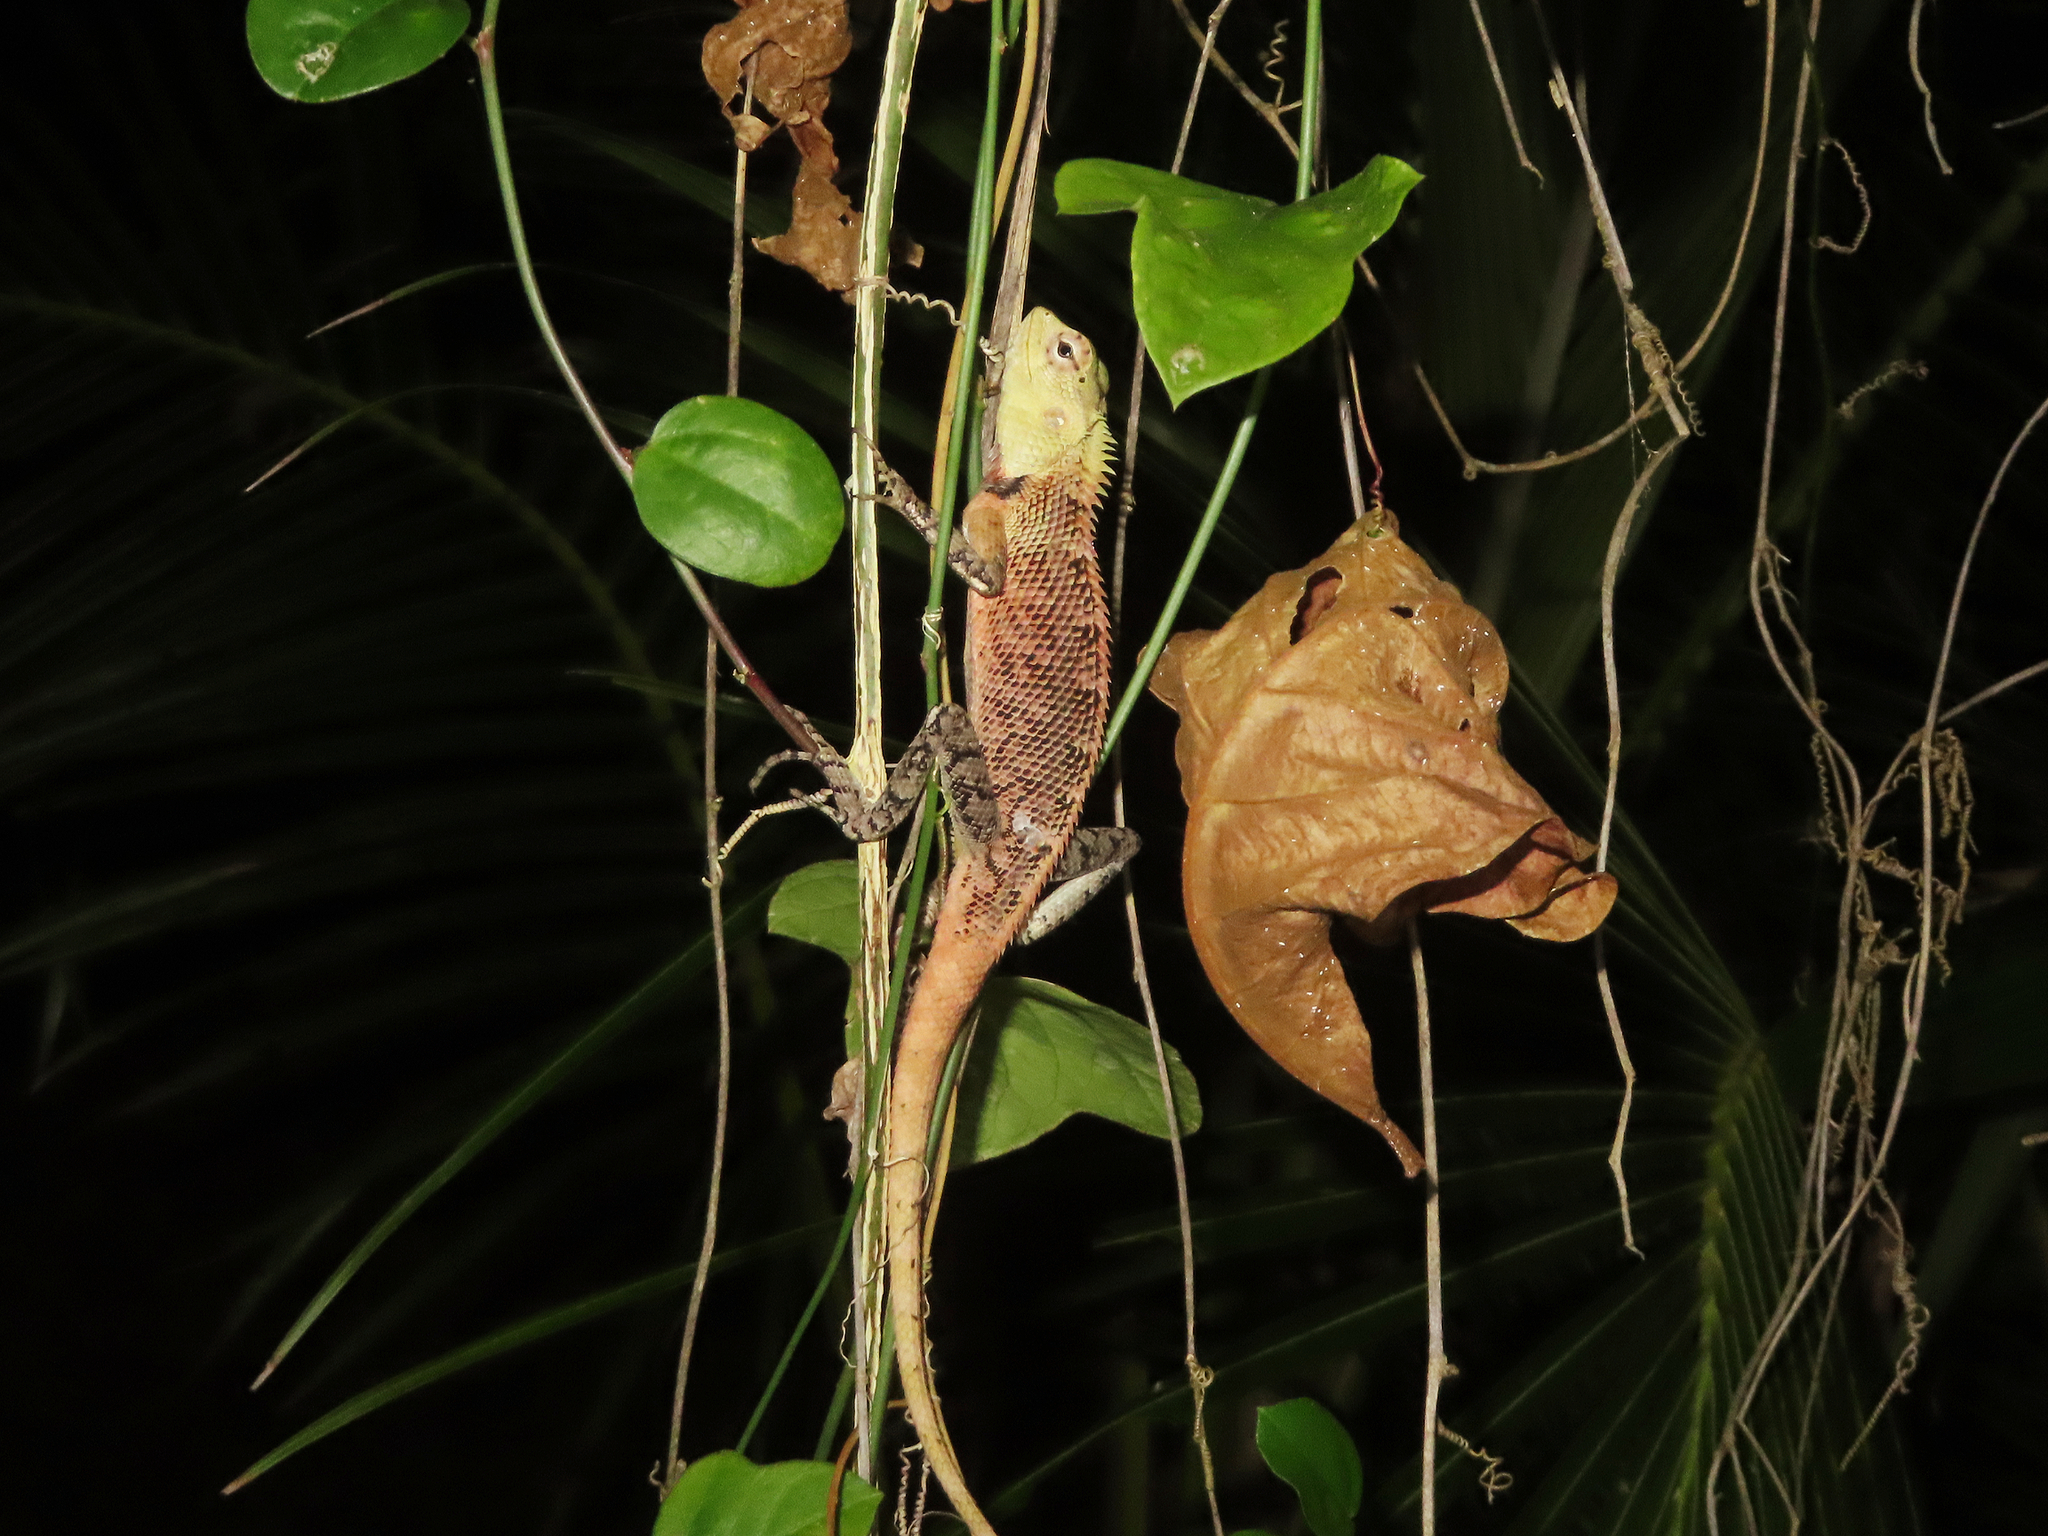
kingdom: Animalia
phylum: Chordata
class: Squamata
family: Agamidae
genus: Calotes
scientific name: Calotes versicolor
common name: Oriental garden lizard
